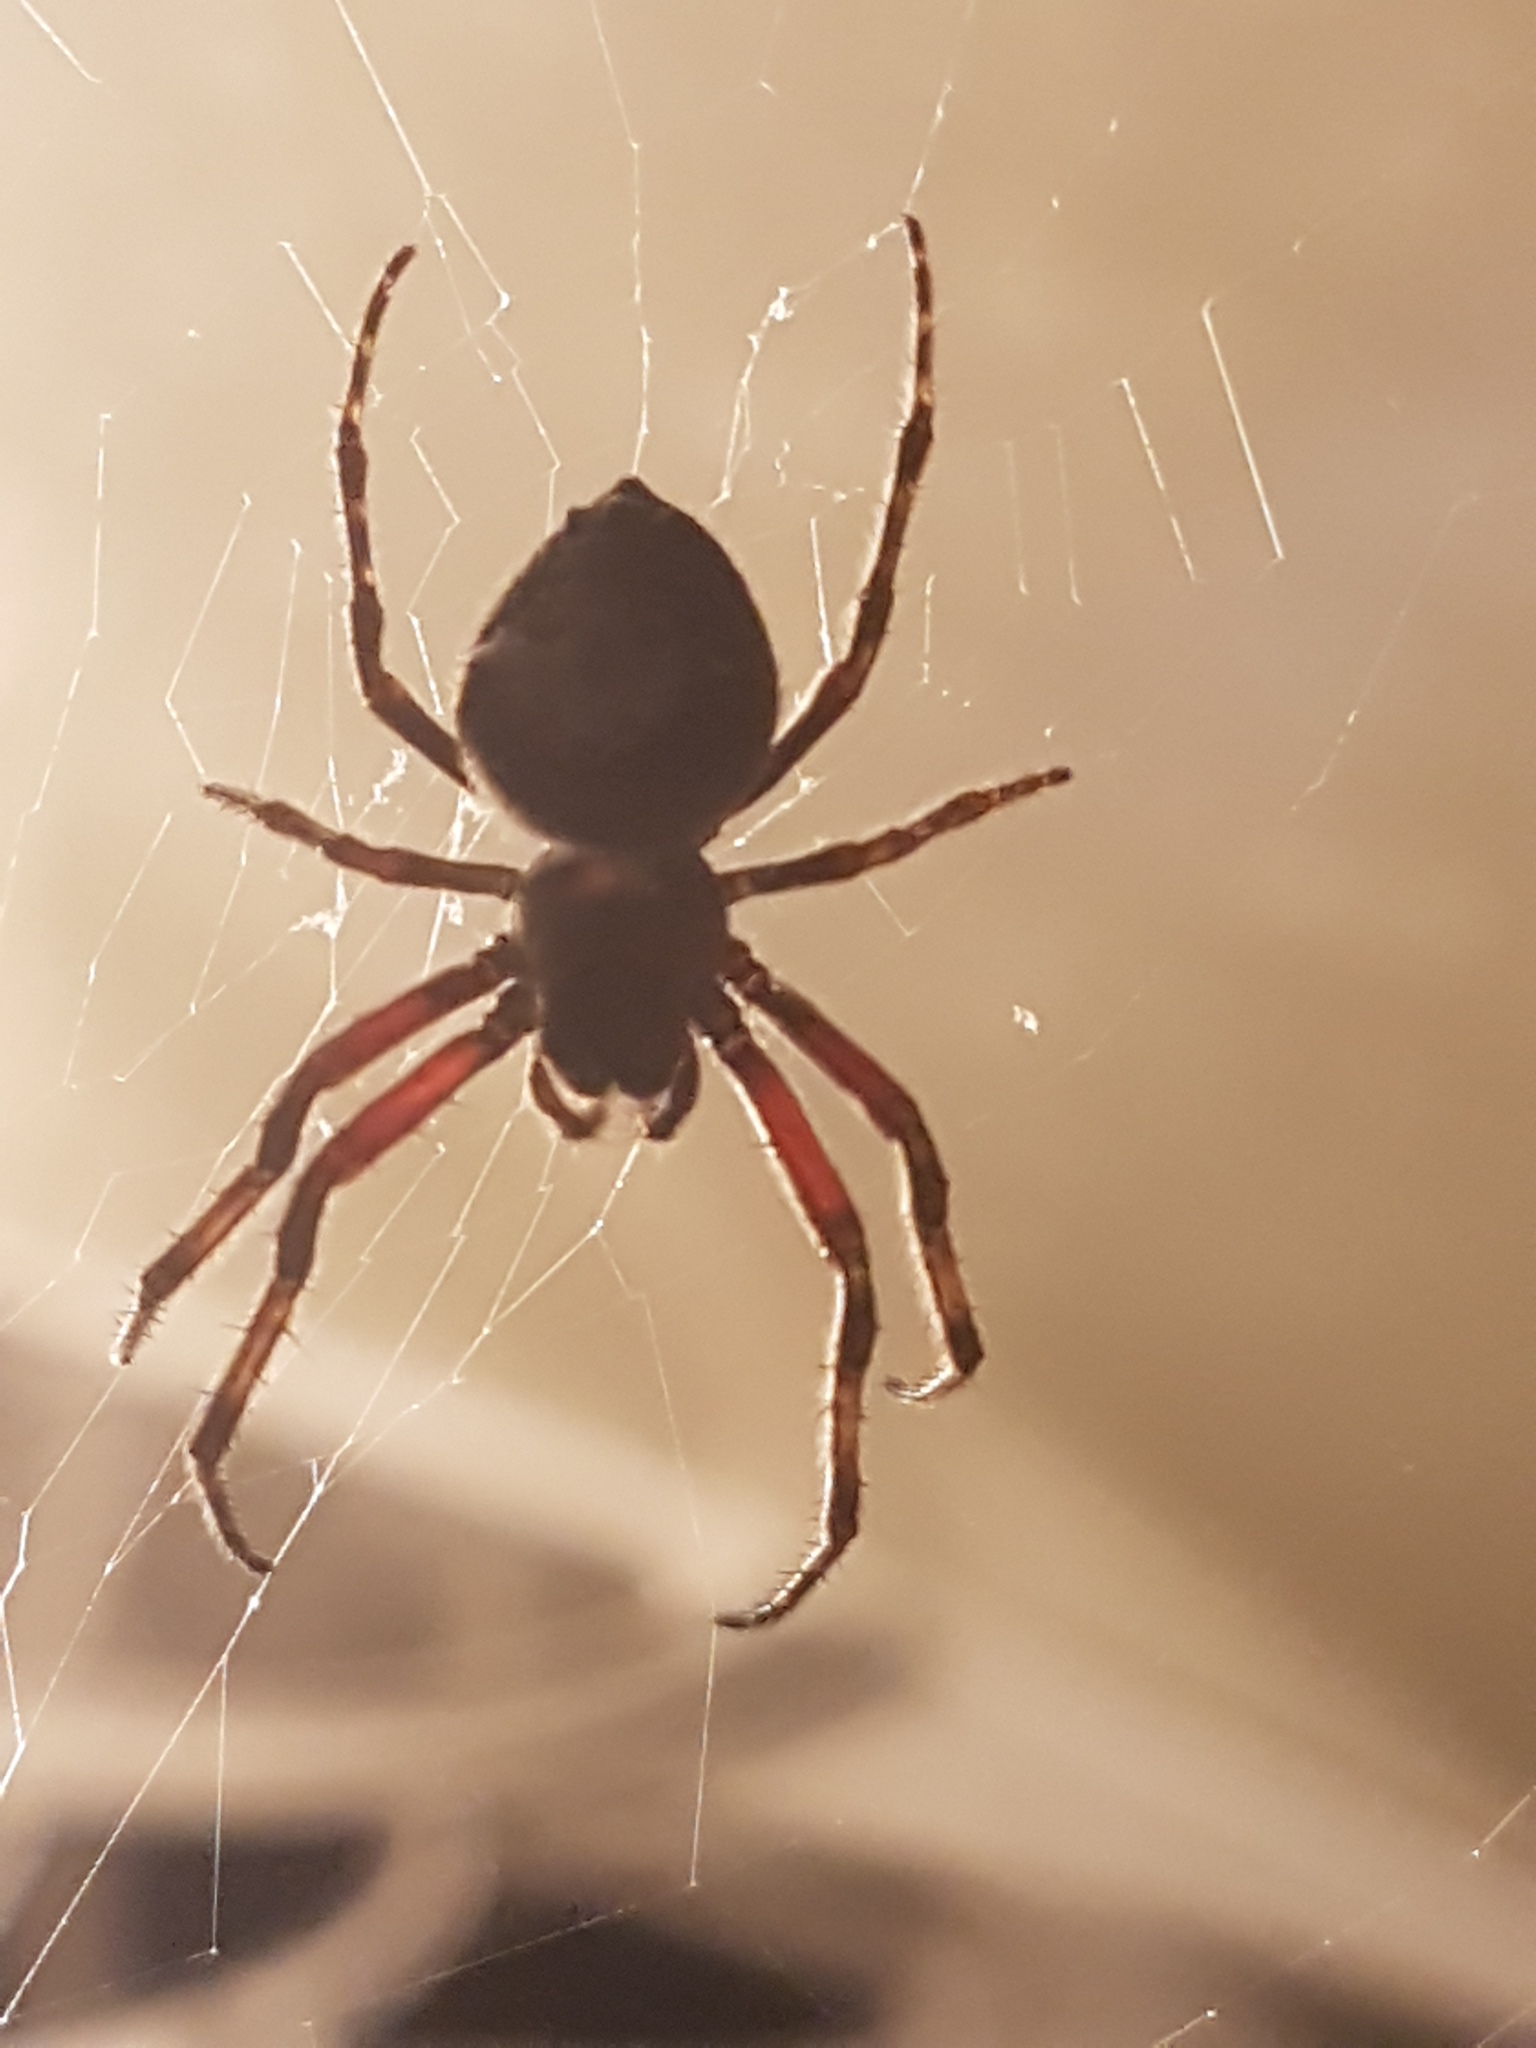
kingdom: Animalia
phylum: Arthropoda
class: Arachnida
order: Araneae
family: Araneidae
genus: Eriophora
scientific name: Eriophora pustulosa
